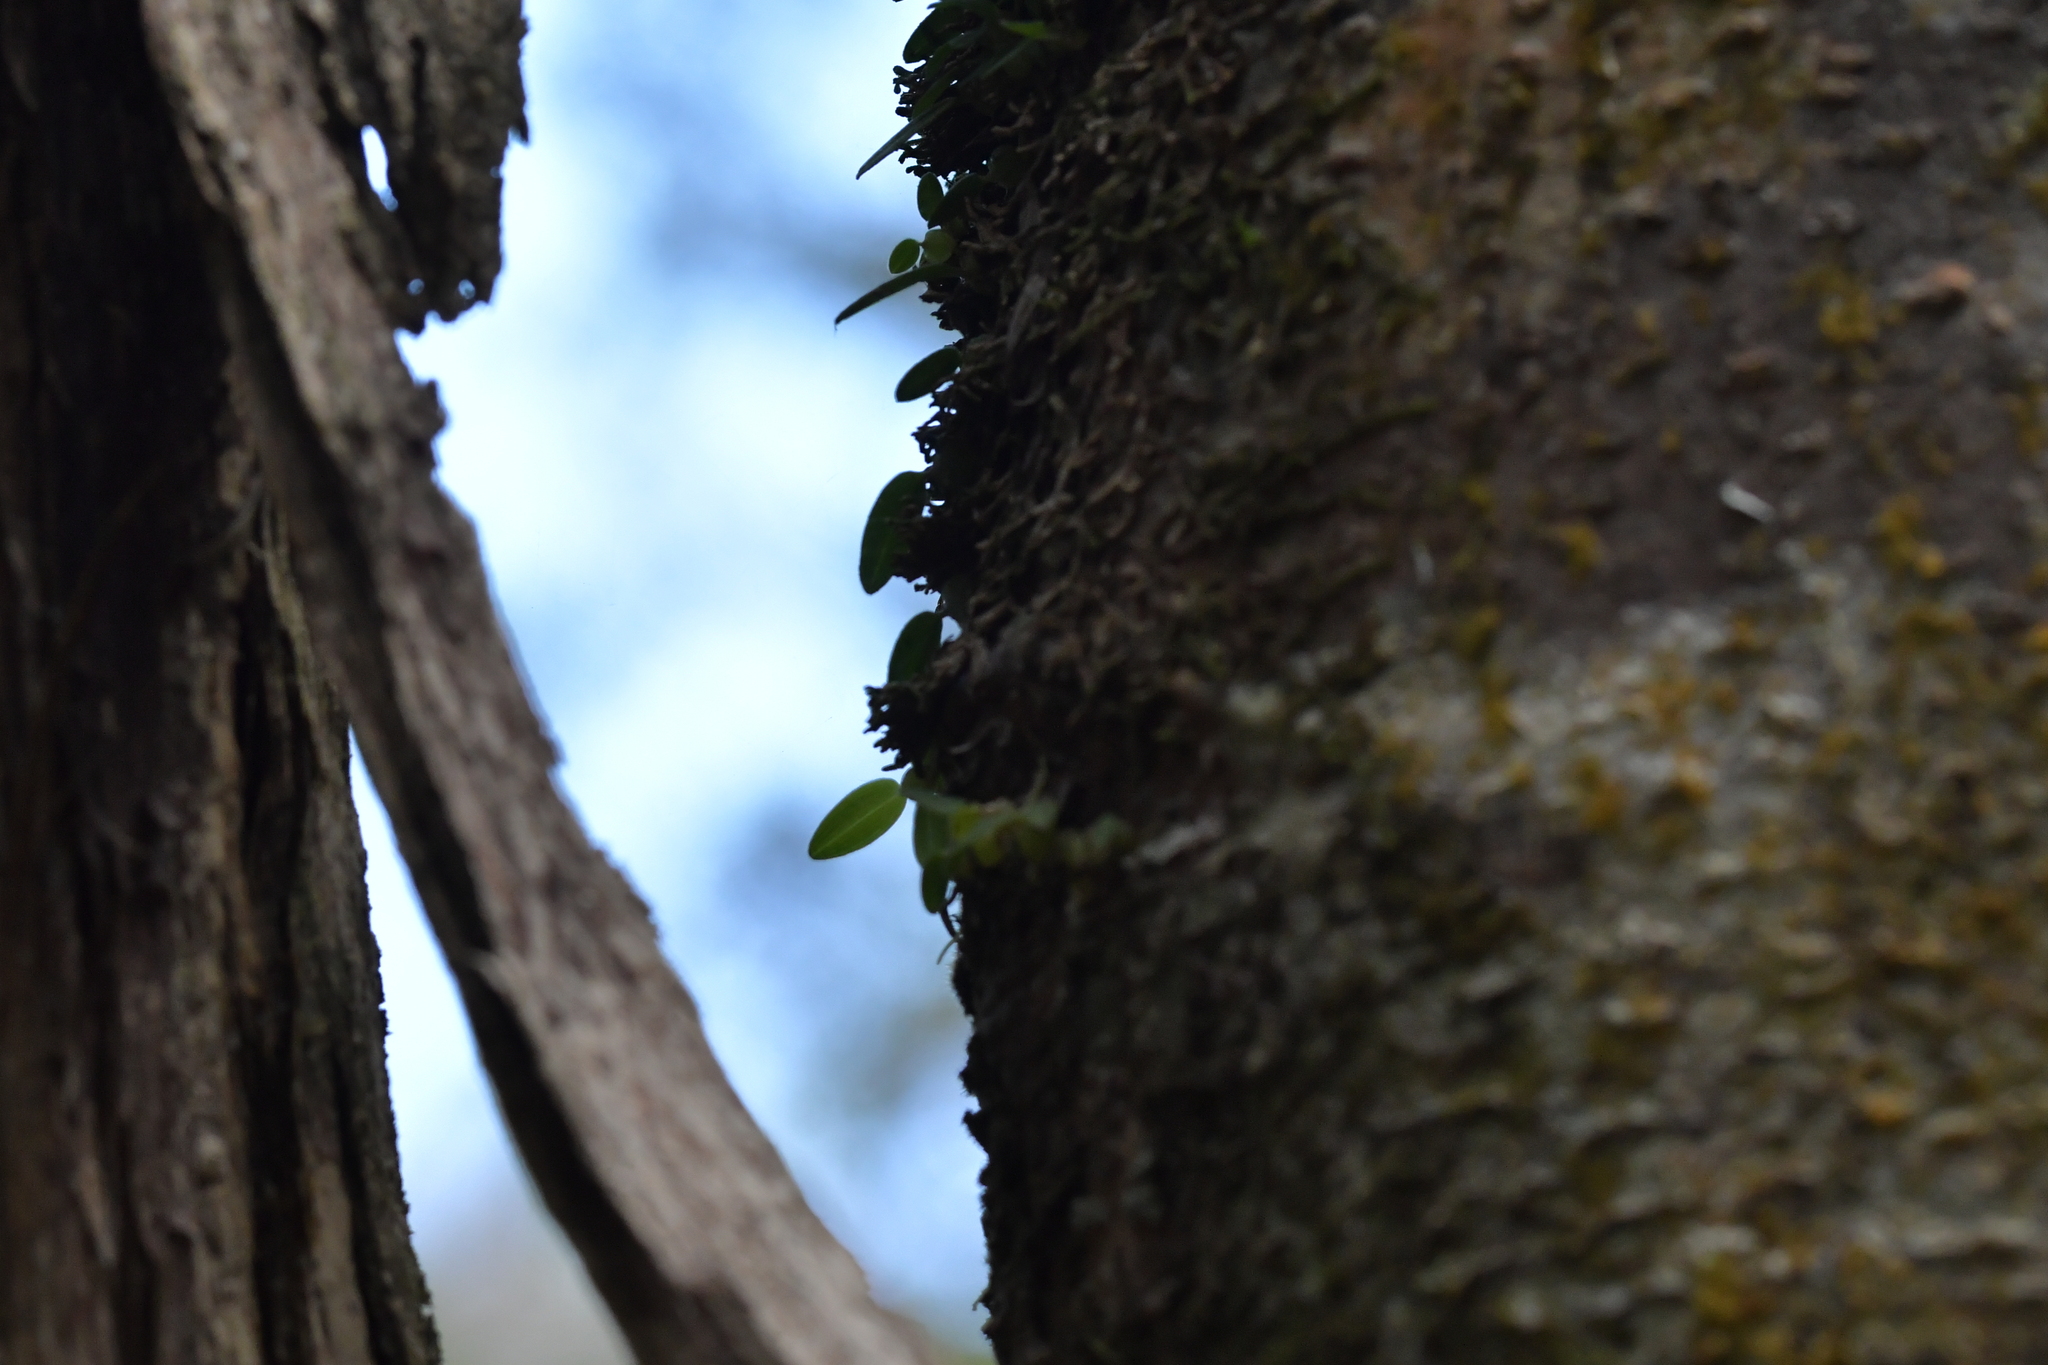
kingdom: Plantae
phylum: Tracheophyta
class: Liliopsida
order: Asparagales
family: Orchidaceae
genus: Bulbophyllum
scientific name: Bulbophyllum pygmaeum
